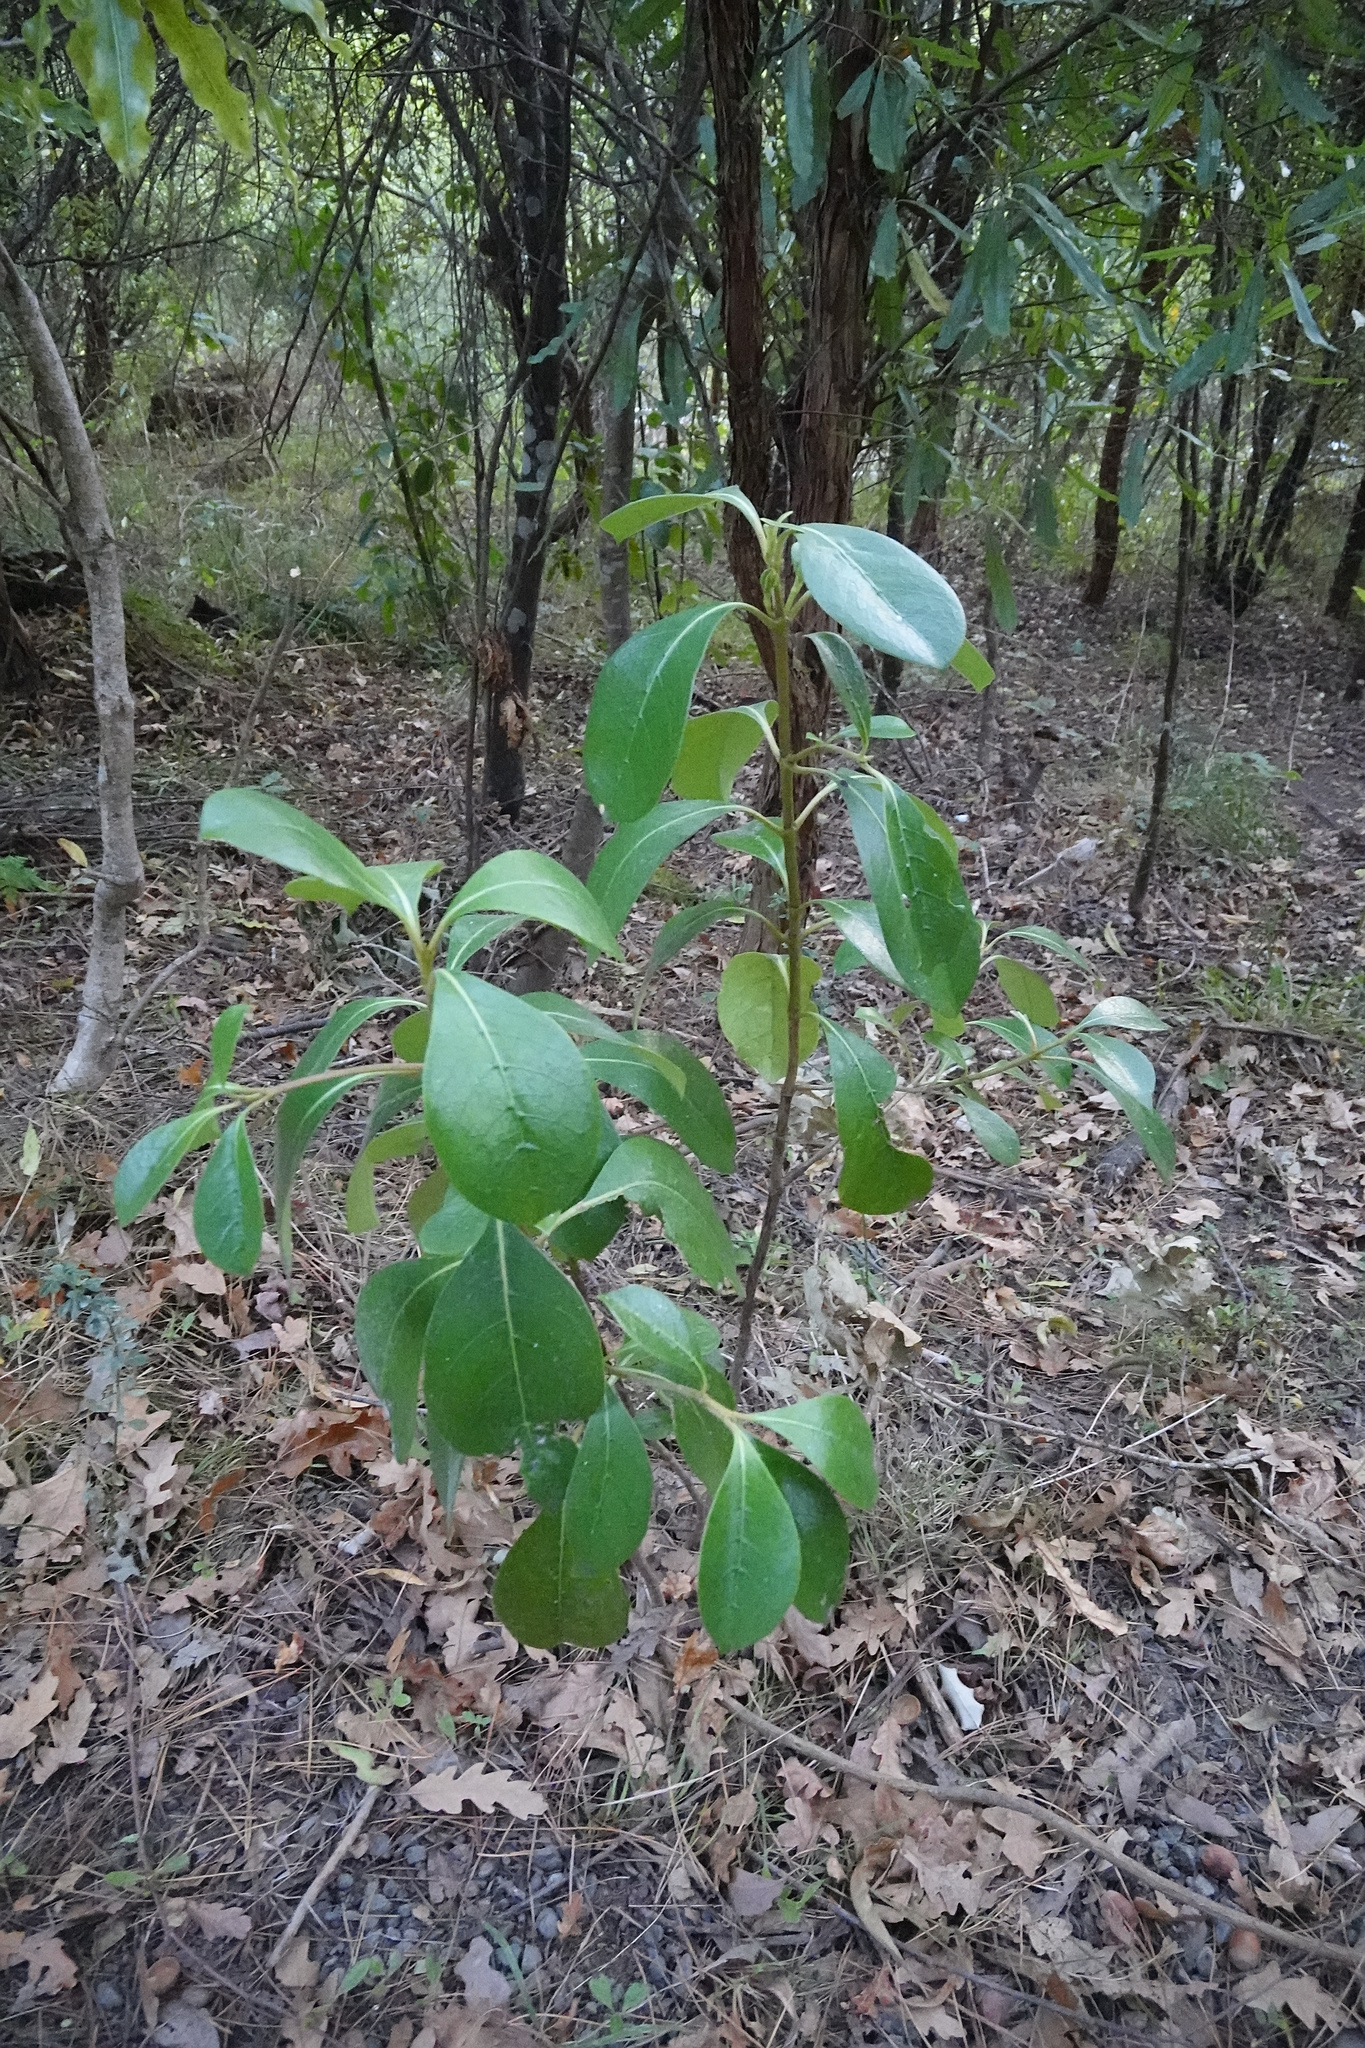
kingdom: Plantae
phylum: Tracheophyta
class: Magnoliopsida
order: Gentianales
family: Rubiaceae
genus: Coprosma
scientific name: Coprosma lucida
